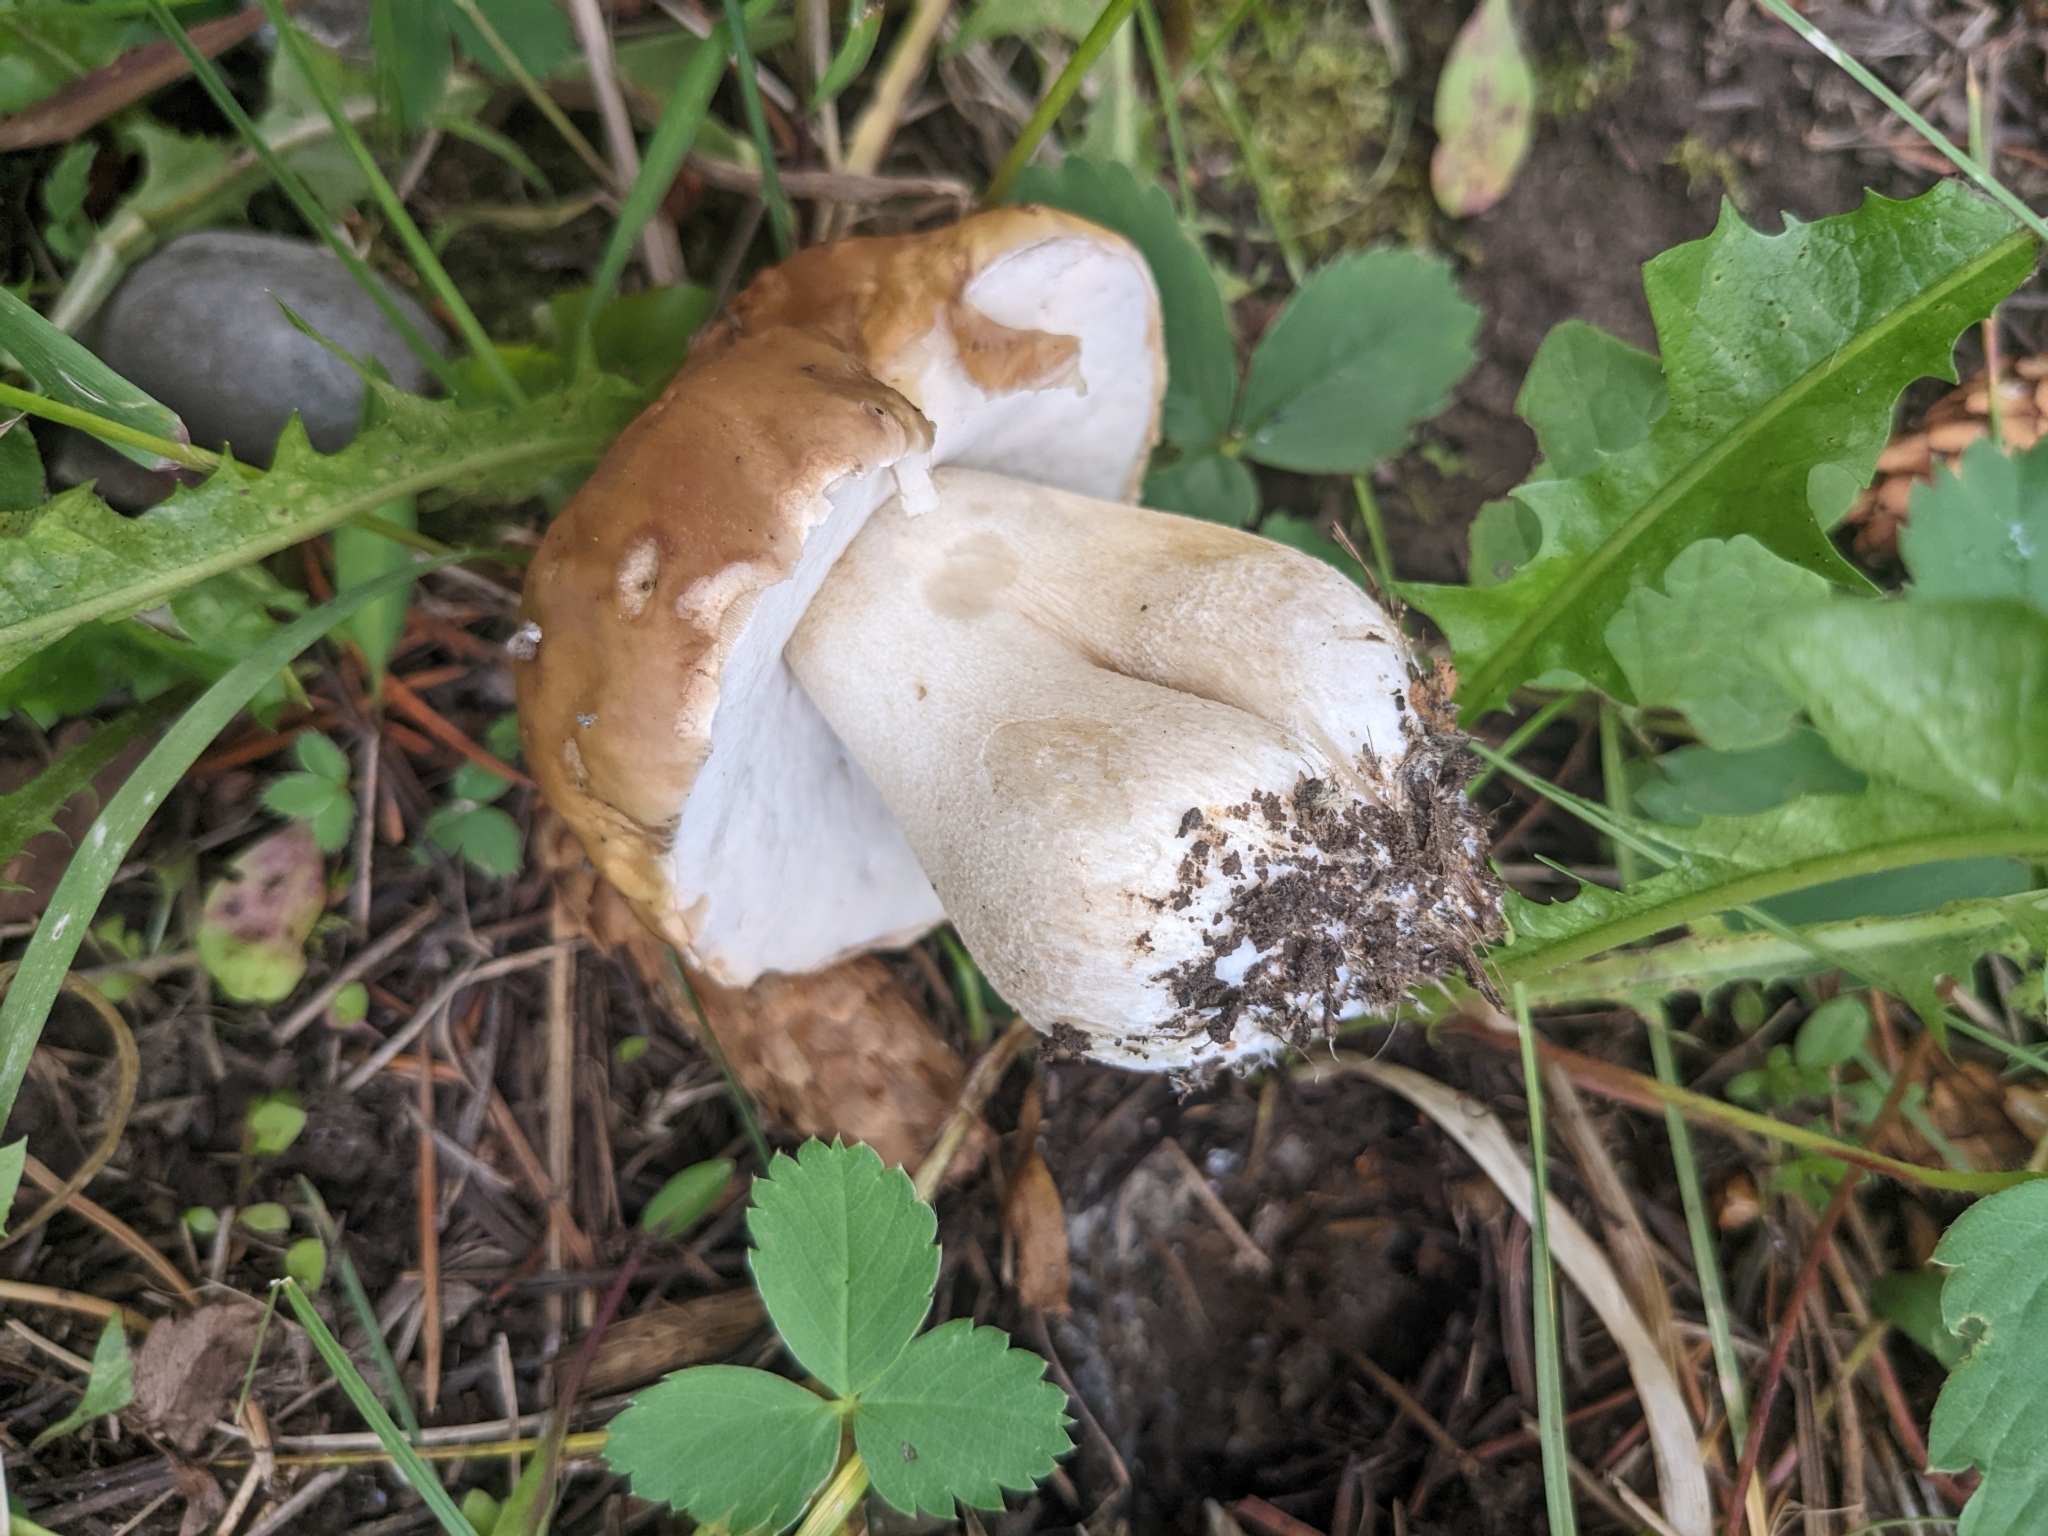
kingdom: Fungi
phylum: Basidiomycota
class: Agaricomycetes
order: Boletales
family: Boletaceae
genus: Boletus
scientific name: Boletus edulis
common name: Cep
